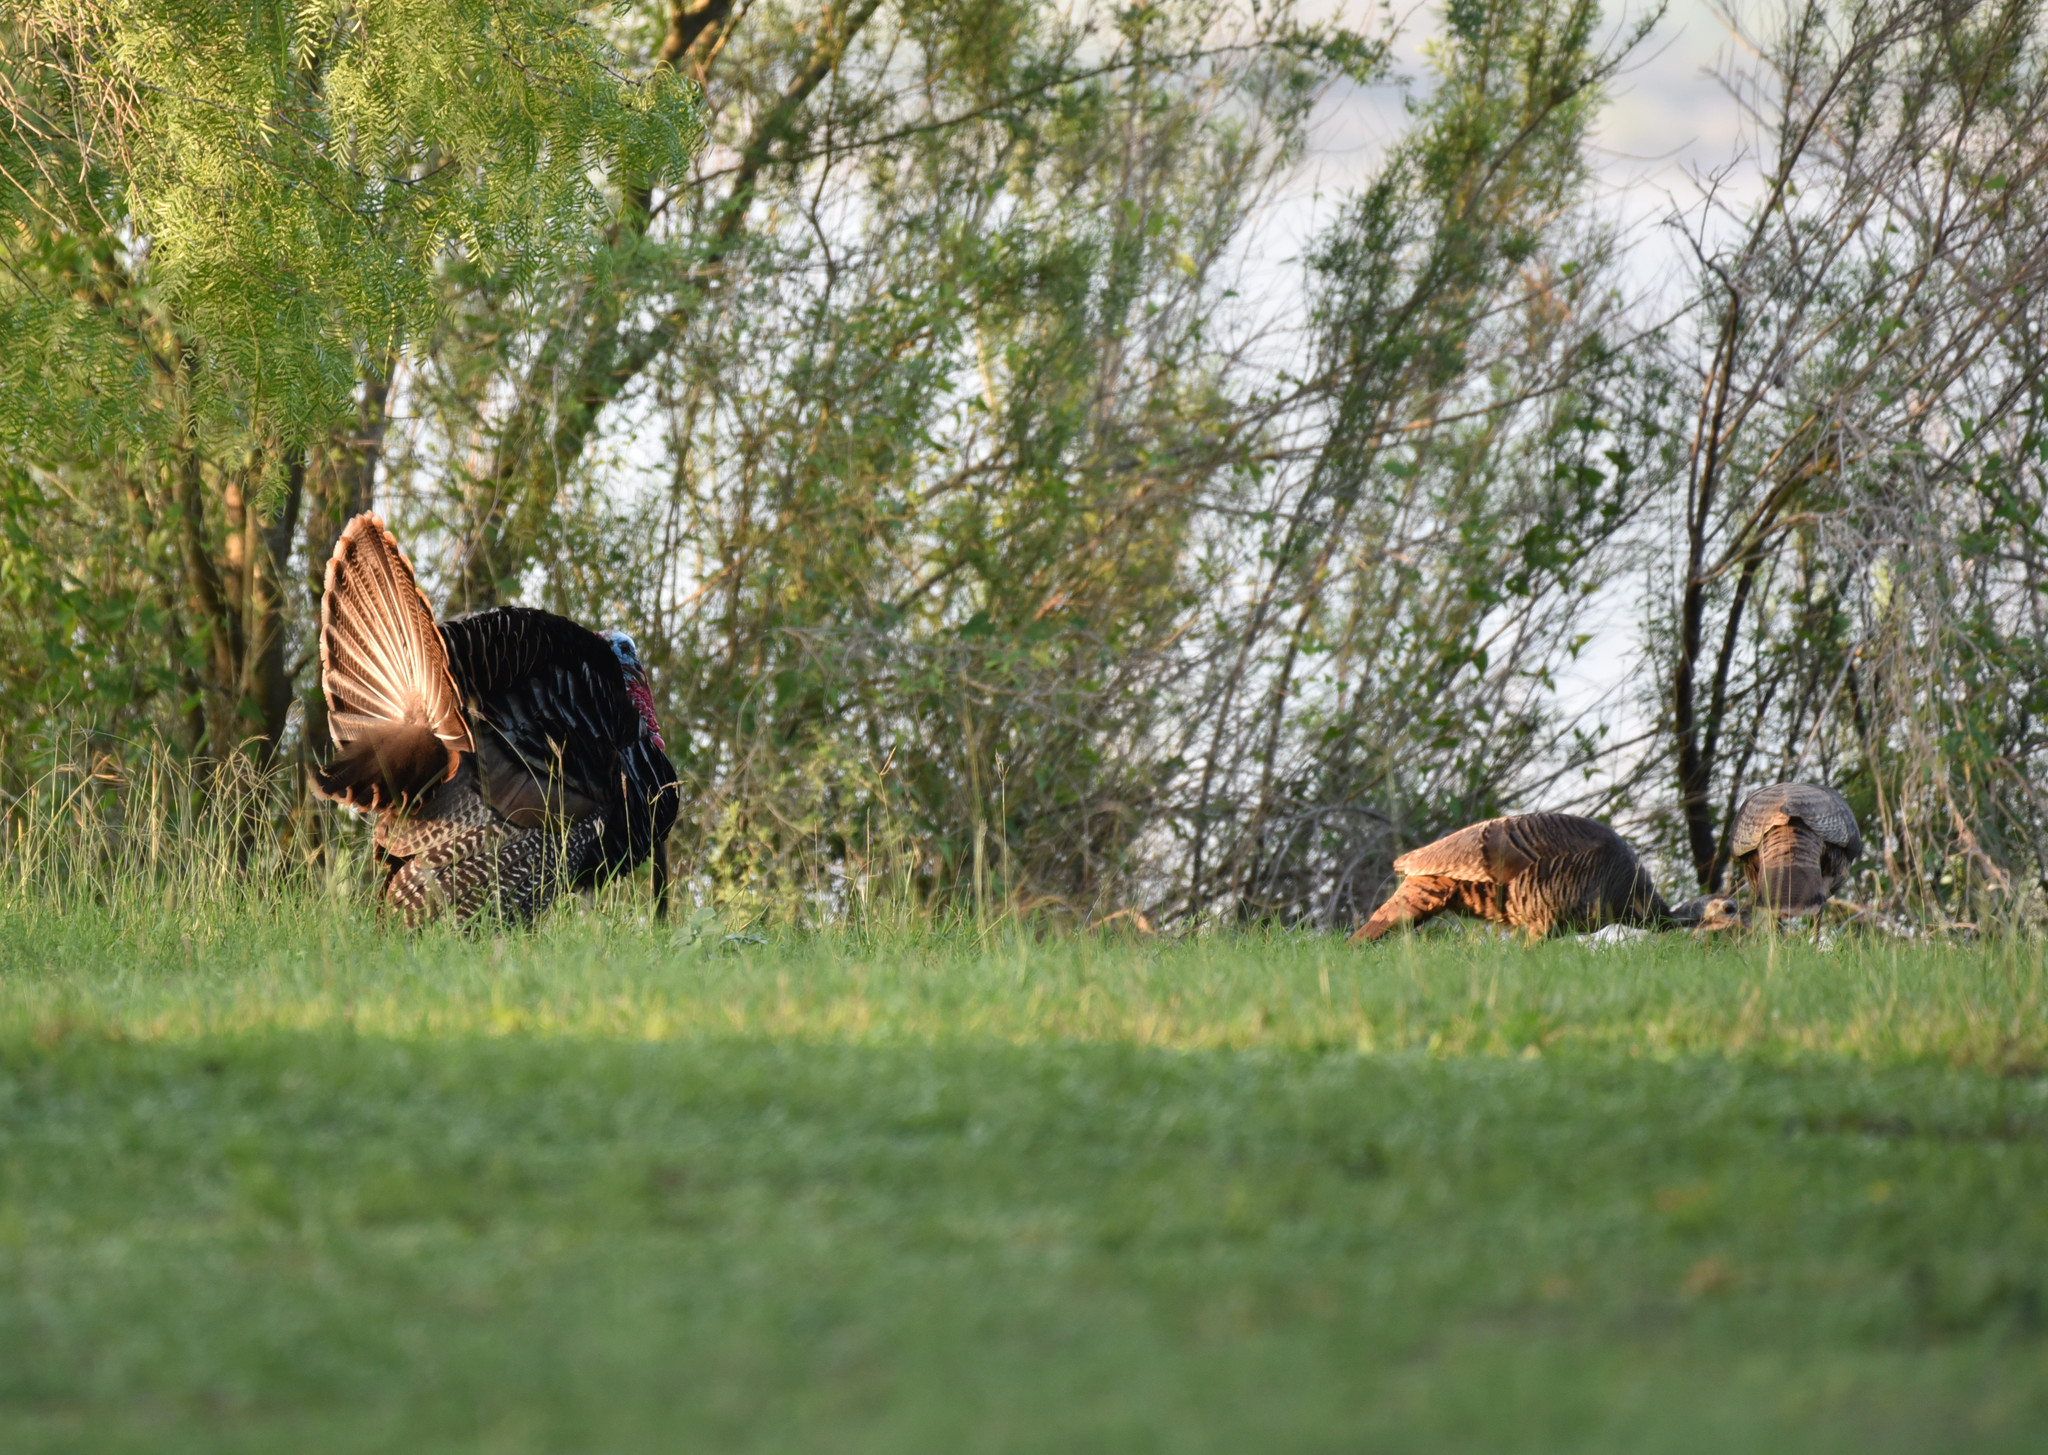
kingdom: Animalia
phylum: Chordata
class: Aves
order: Galliformes
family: Phasianidae
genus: Meleagris
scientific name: Meleagris gallopavo
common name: Wild turkey
